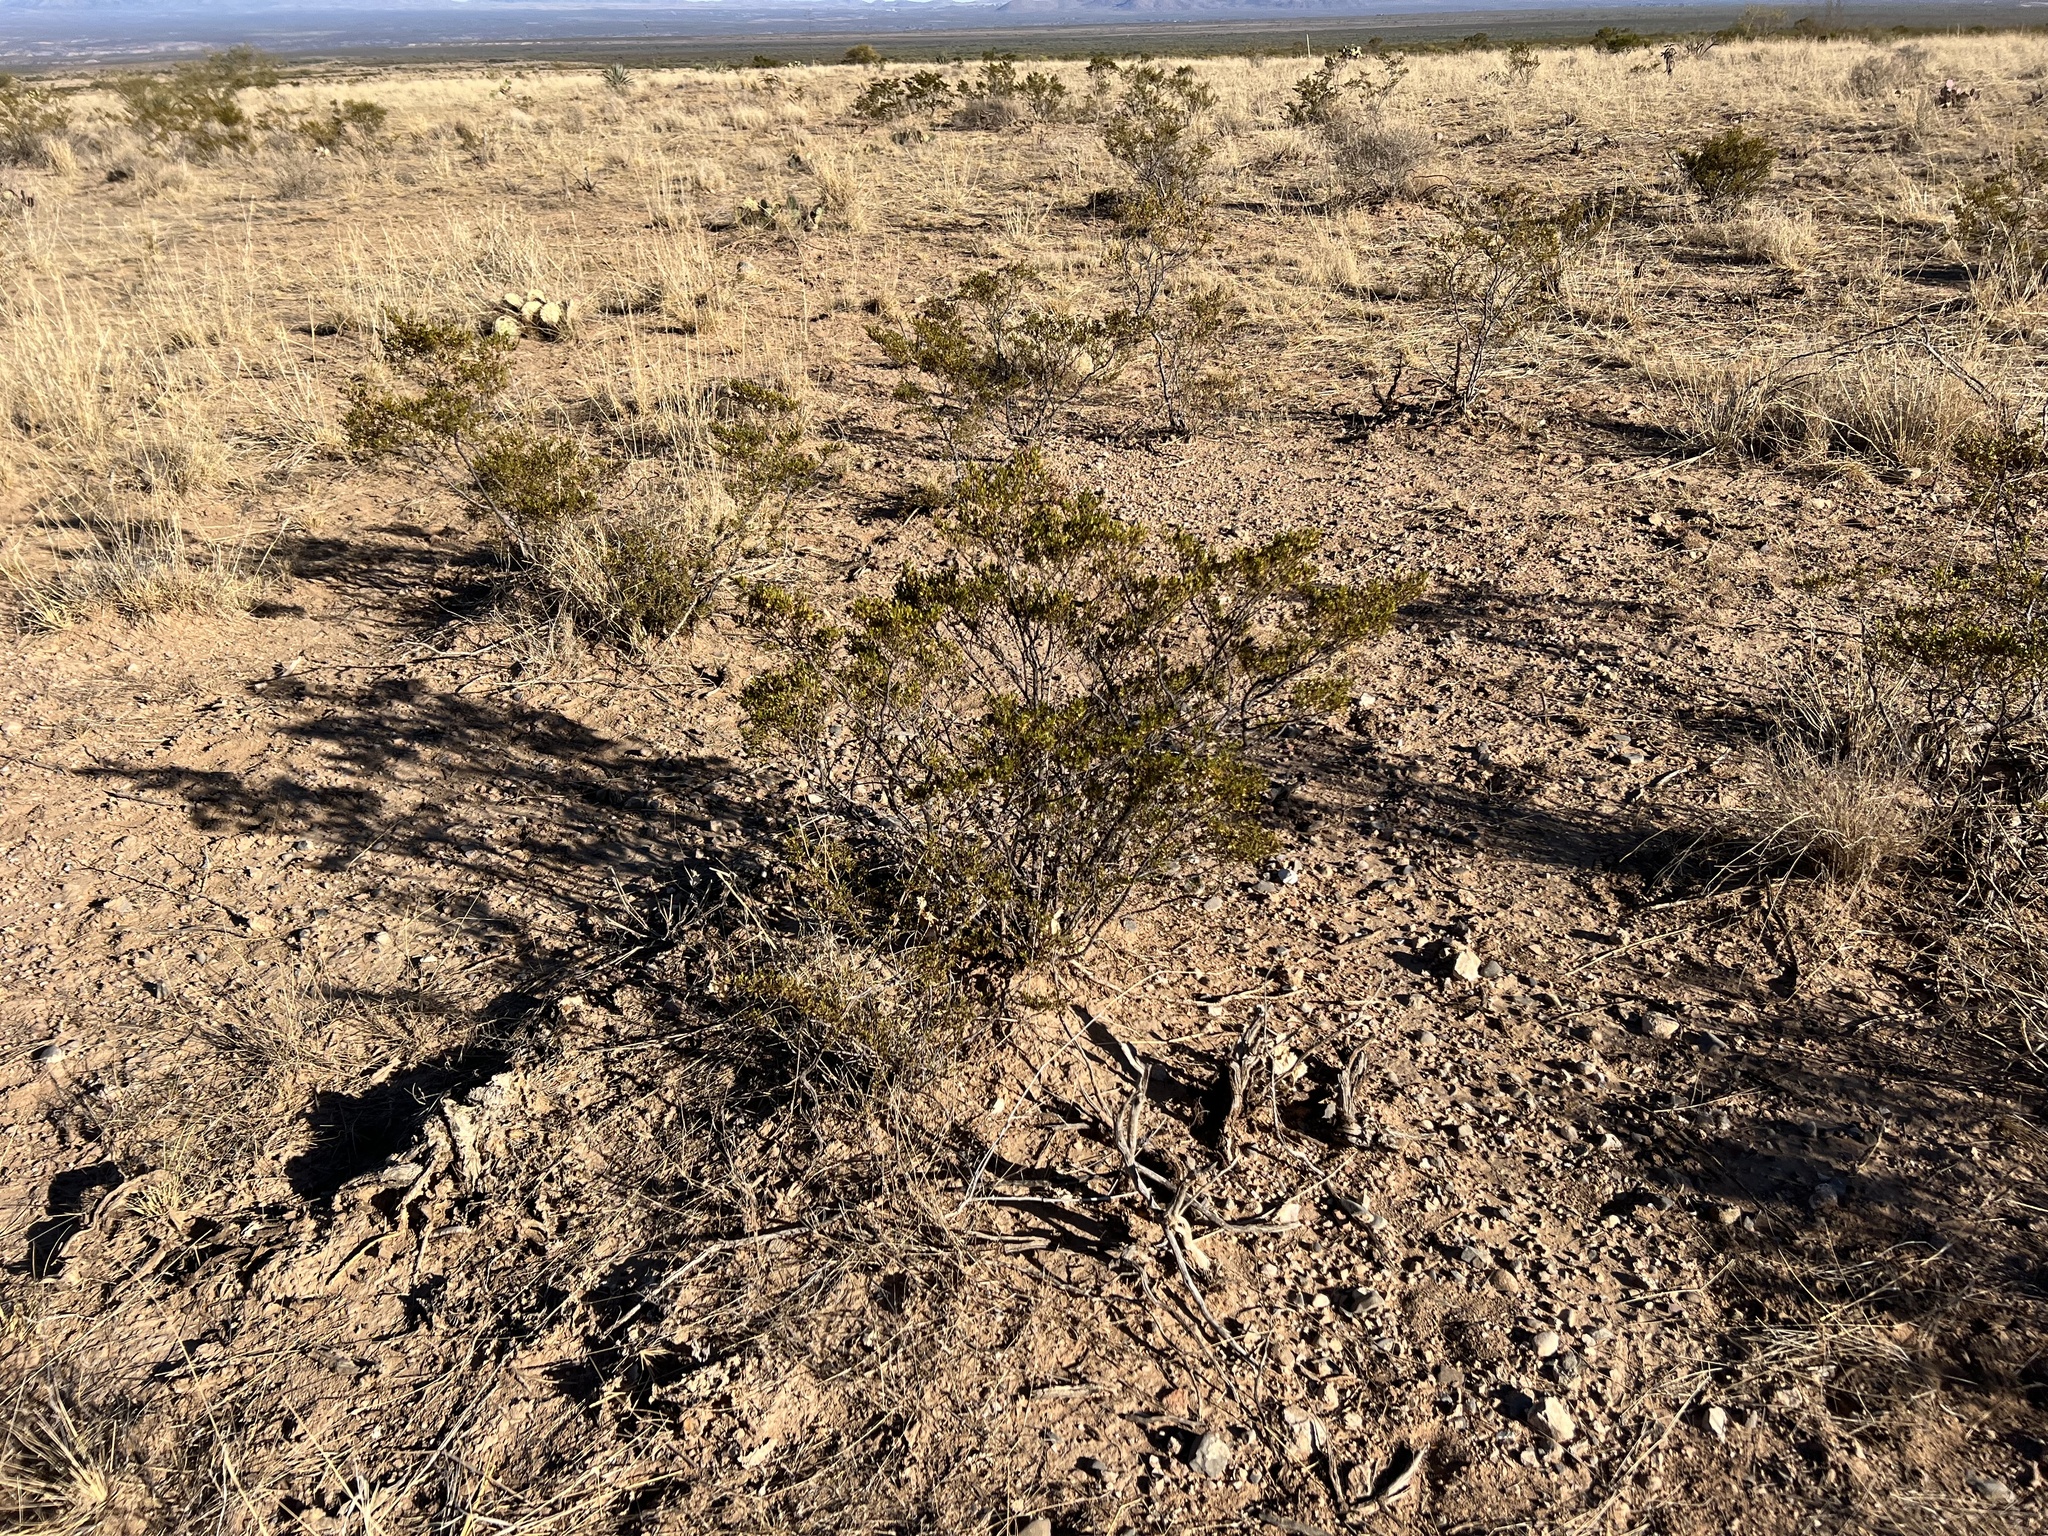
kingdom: Plantae
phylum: Tracheophyta
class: Magnoliopsida
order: Zygophyllales
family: Zygophyllaceae
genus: Larrea
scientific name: Larrea tridentata
